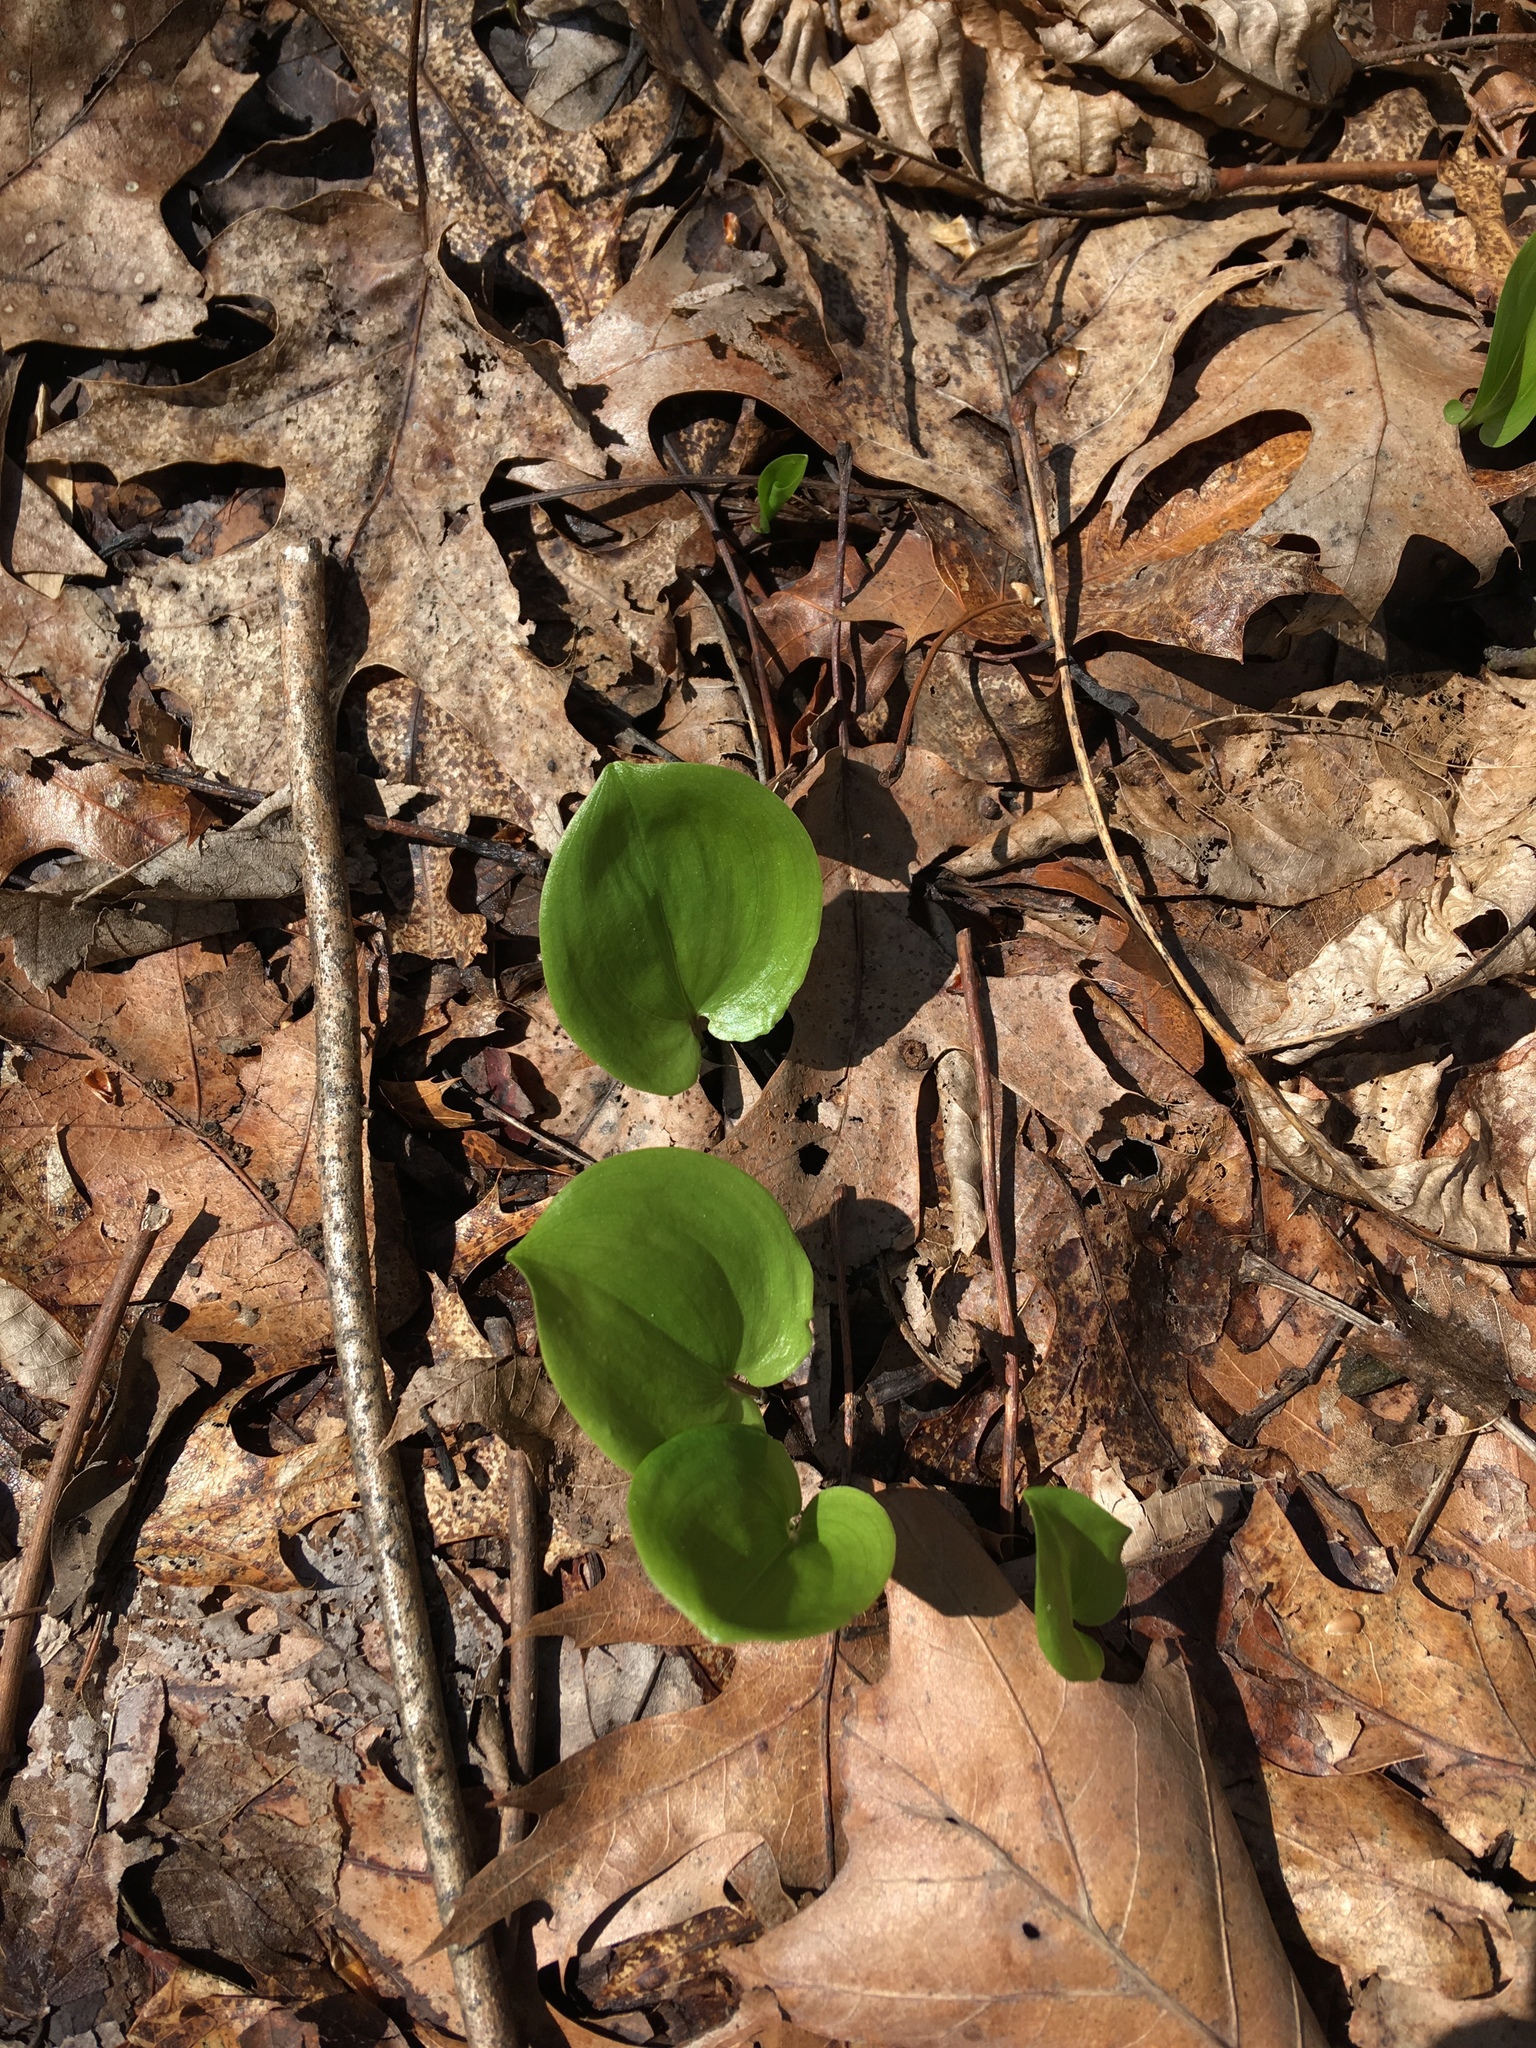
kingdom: Plantae
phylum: Tracheophyta
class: Liliopsida
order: Asparagales
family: Asparagaceae
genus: Maianthemum
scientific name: Maianthemum canadense
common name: False lily-of-the-valley
